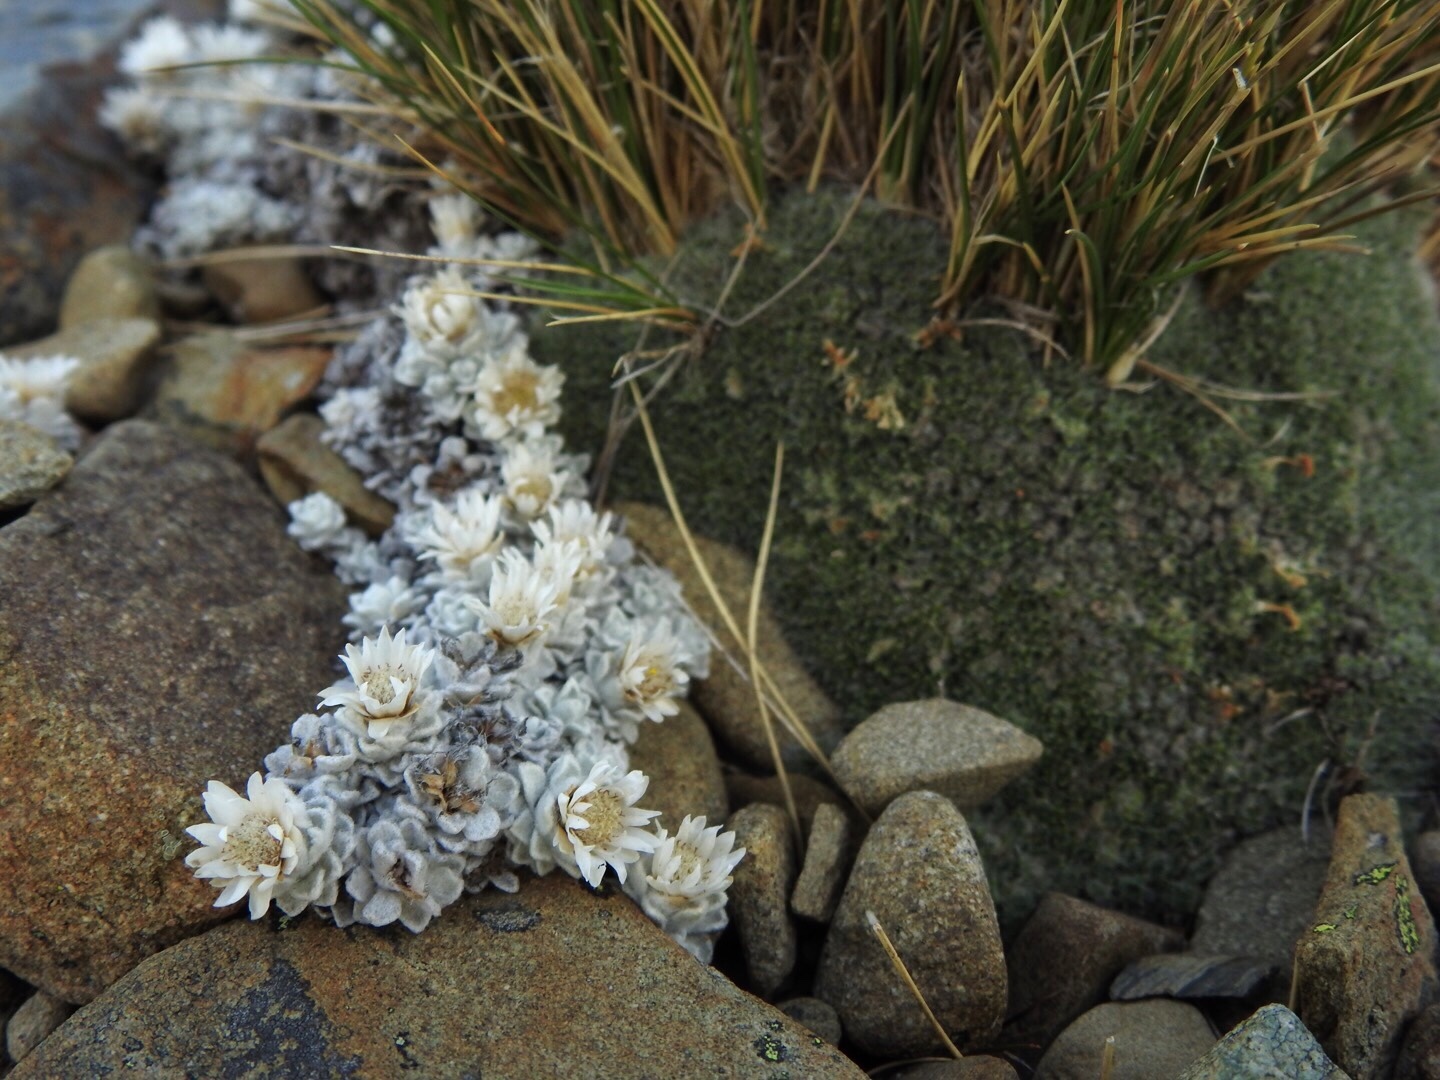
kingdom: Plantae
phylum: Tracheophyta
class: Magnoliopsida
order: Asterales
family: Asteraceae
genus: Raoulia
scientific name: Raoulia youngii
